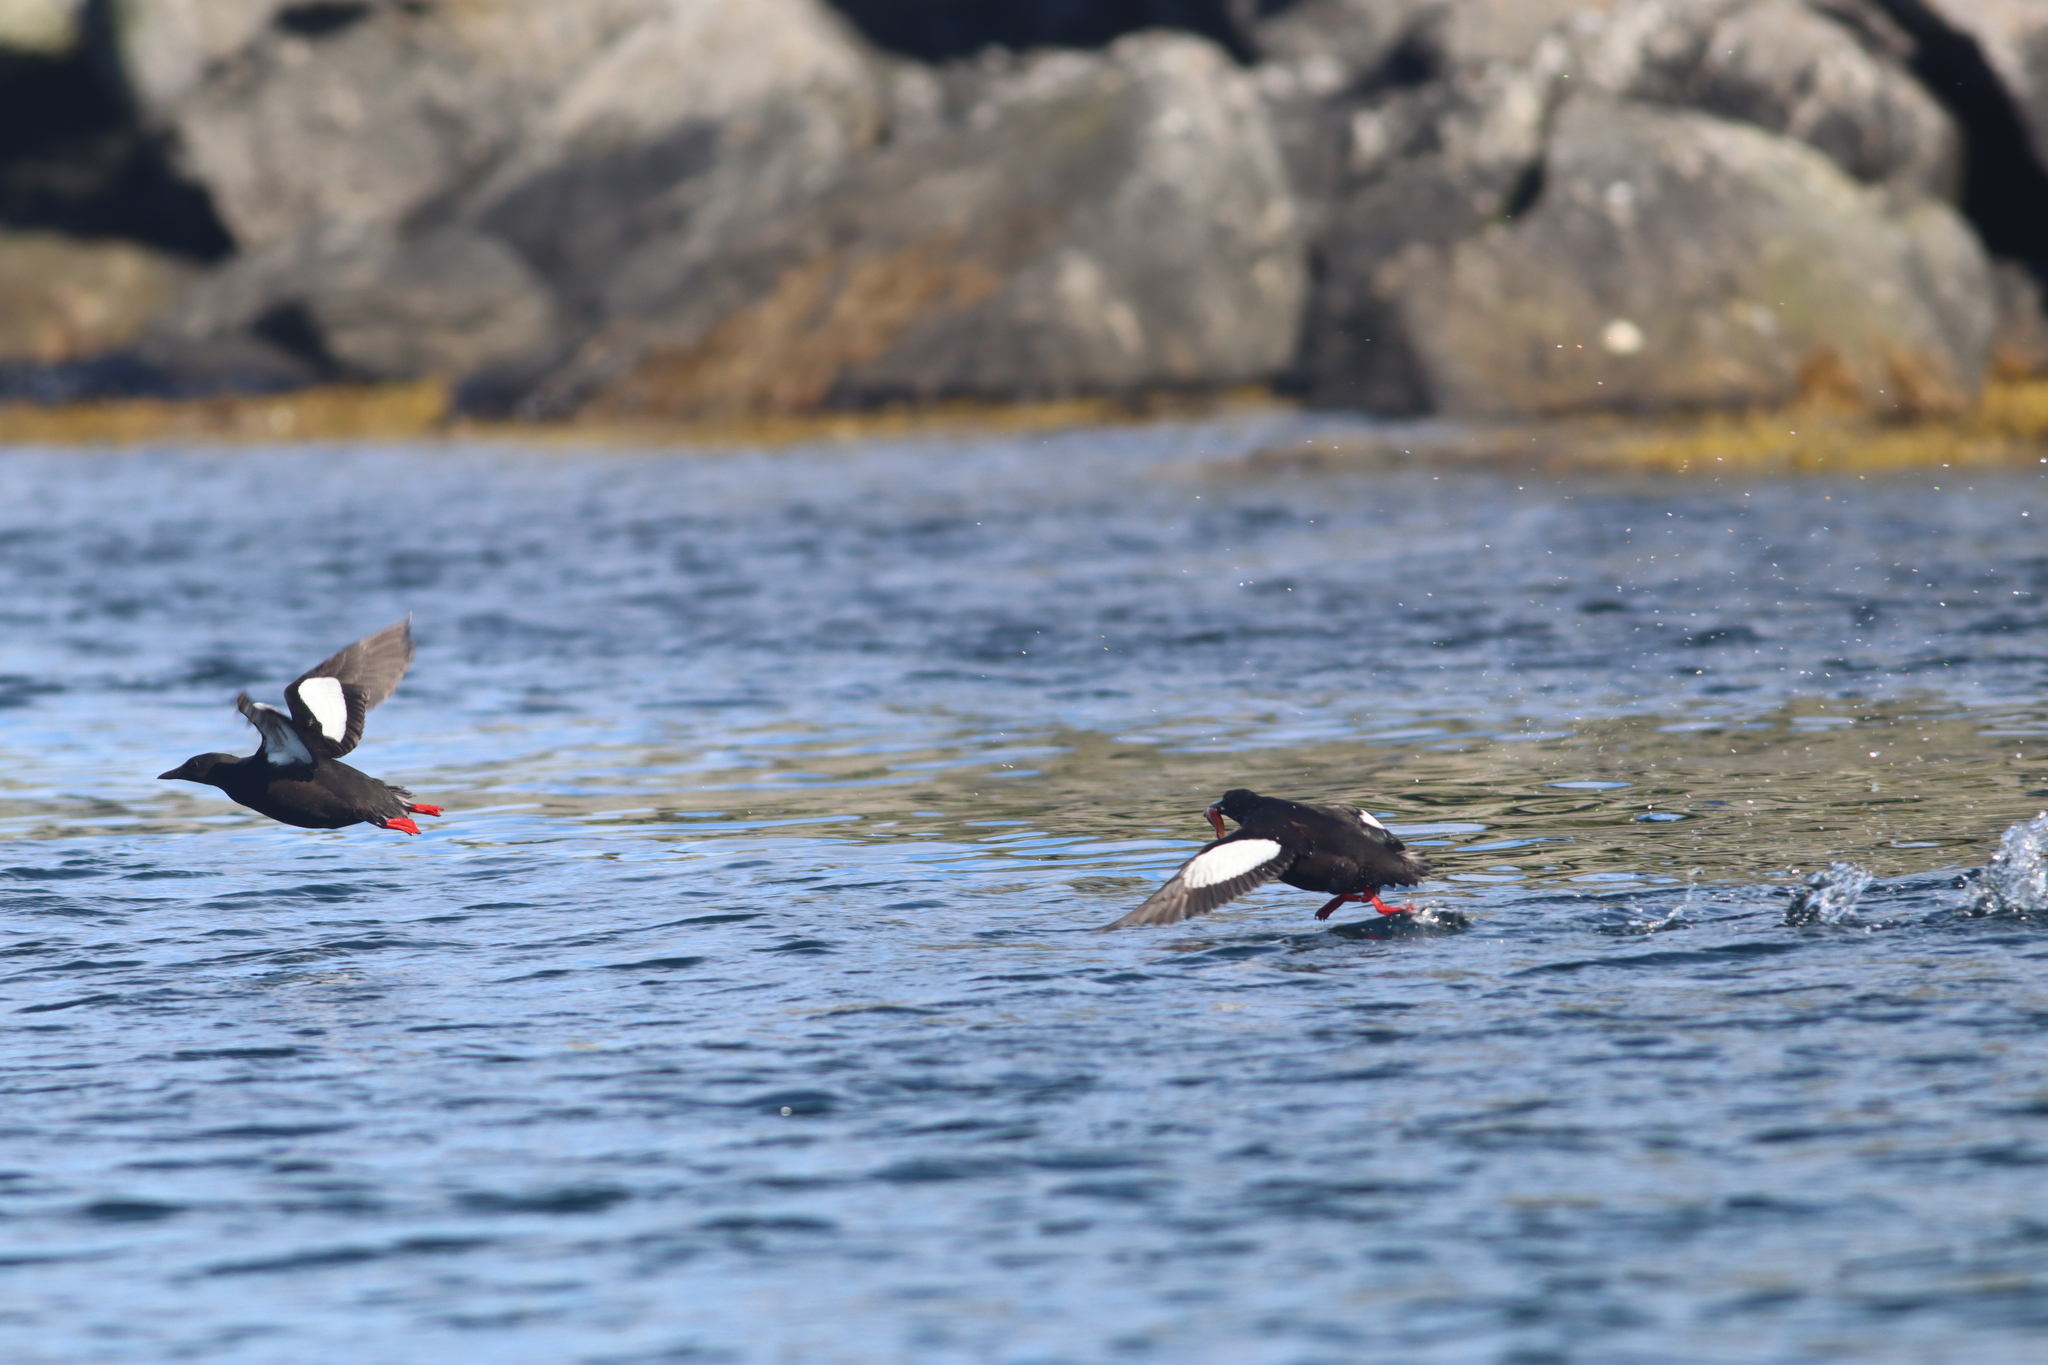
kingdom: Animalia
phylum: Chordata
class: Aves
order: Charadriiformes
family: Alcidae
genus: Cepphus
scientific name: Cepphus grylle
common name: Black guillemot
